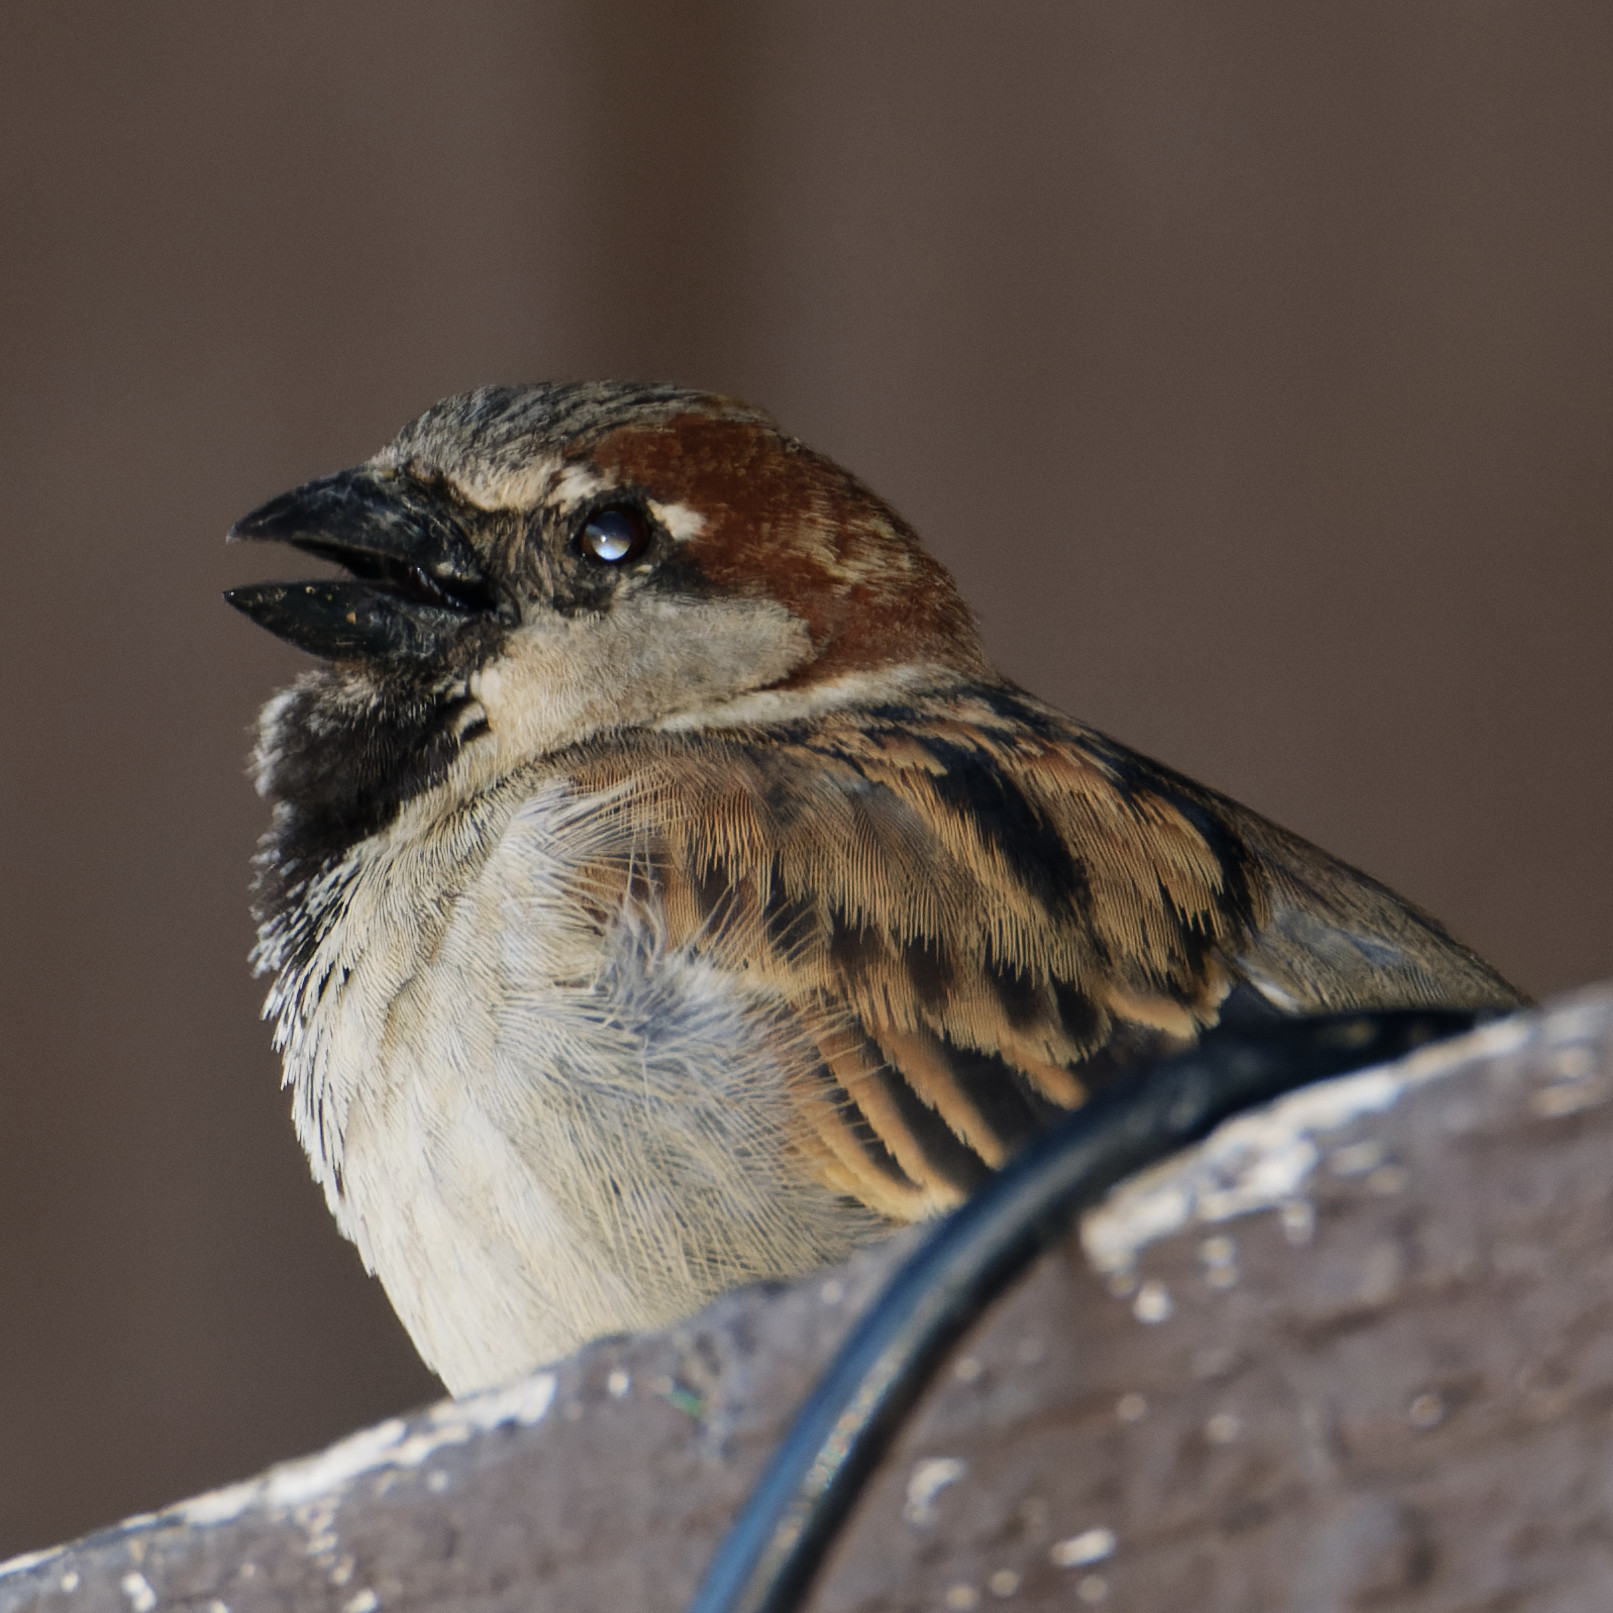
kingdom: Animalia
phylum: Chordata
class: Aves
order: Passeriformes
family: Passeridae
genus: Passer
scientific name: Passer domesticus
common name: House sparrow
